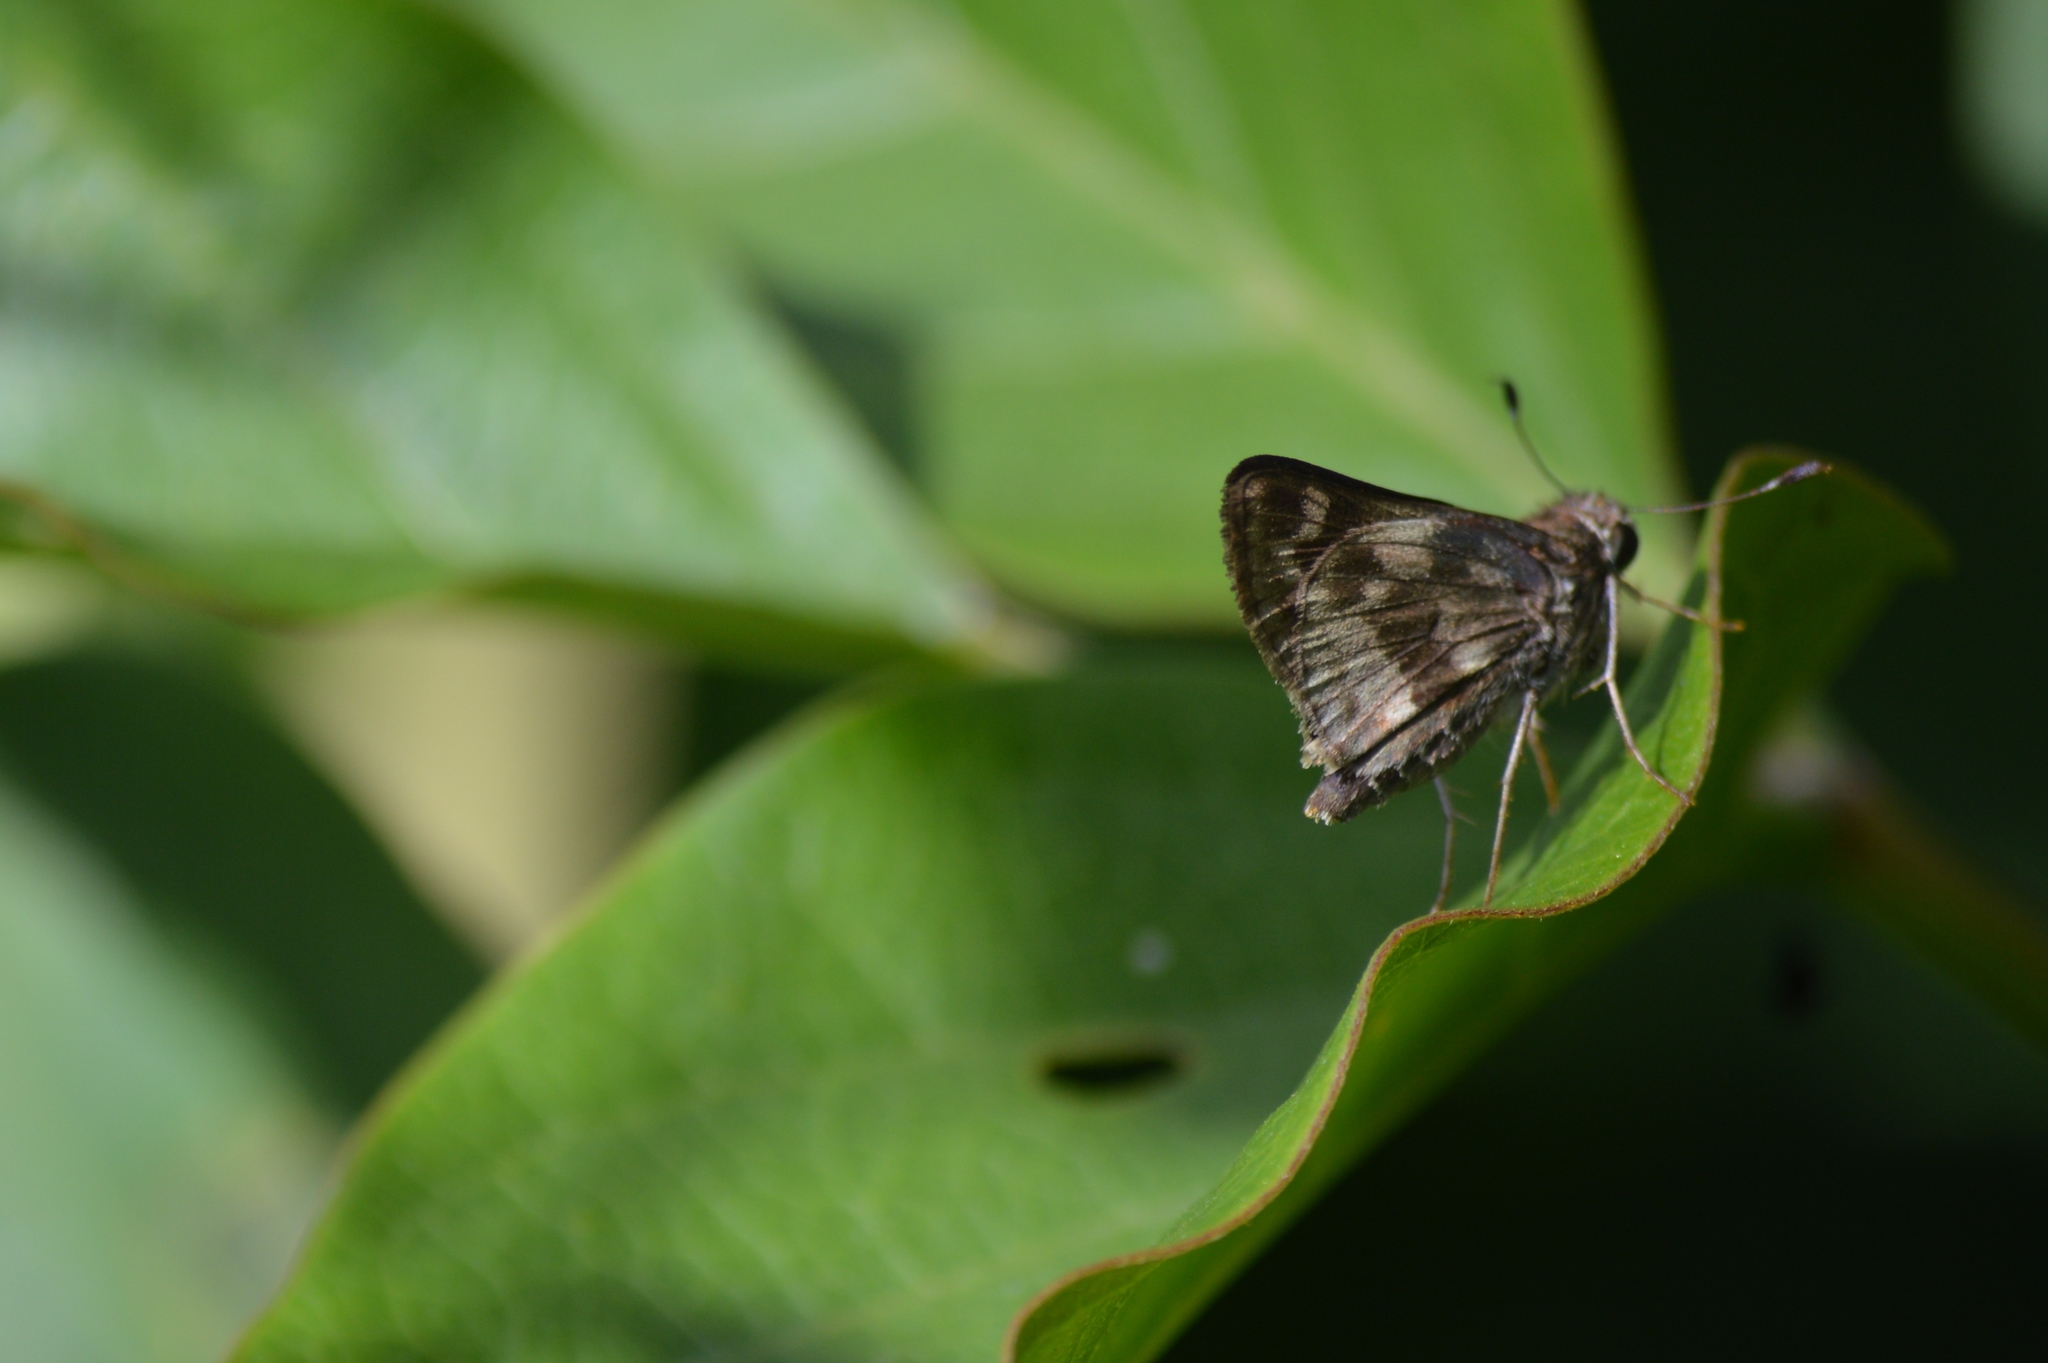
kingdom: Animalia
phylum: Arthropoda
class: Insecta
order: Lepidoptera
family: Hesperiidae
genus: Pompeius
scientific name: Pompeius pompeius
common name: Pompeius skipper
